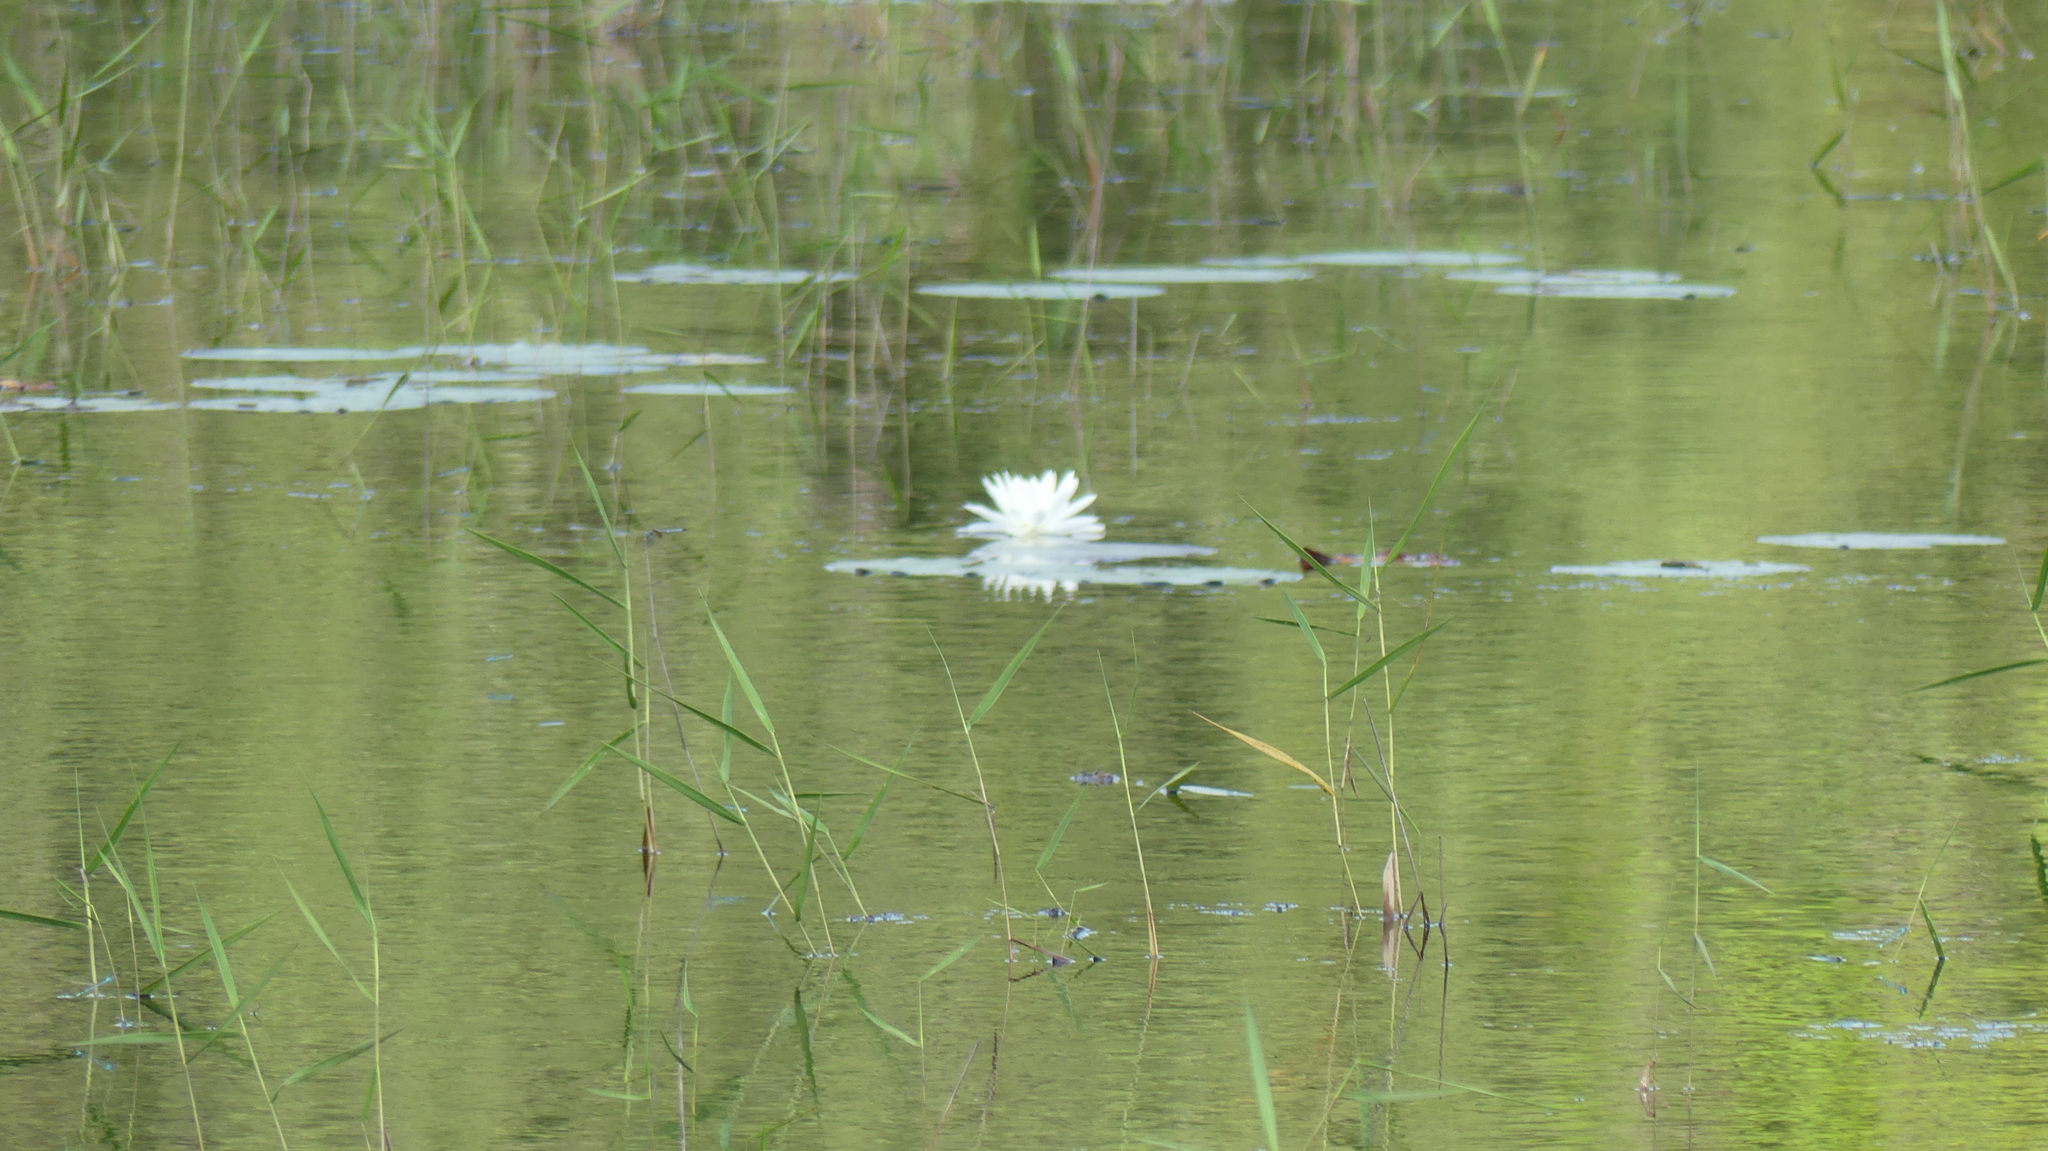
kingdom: Plantae
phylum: Tracheophyta
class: Magnoliopsida
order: Nymphaeales
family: Nymphaeaceae
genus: Nymphaea
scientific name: Nymphaea odorata
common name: Fragrant water-lily
